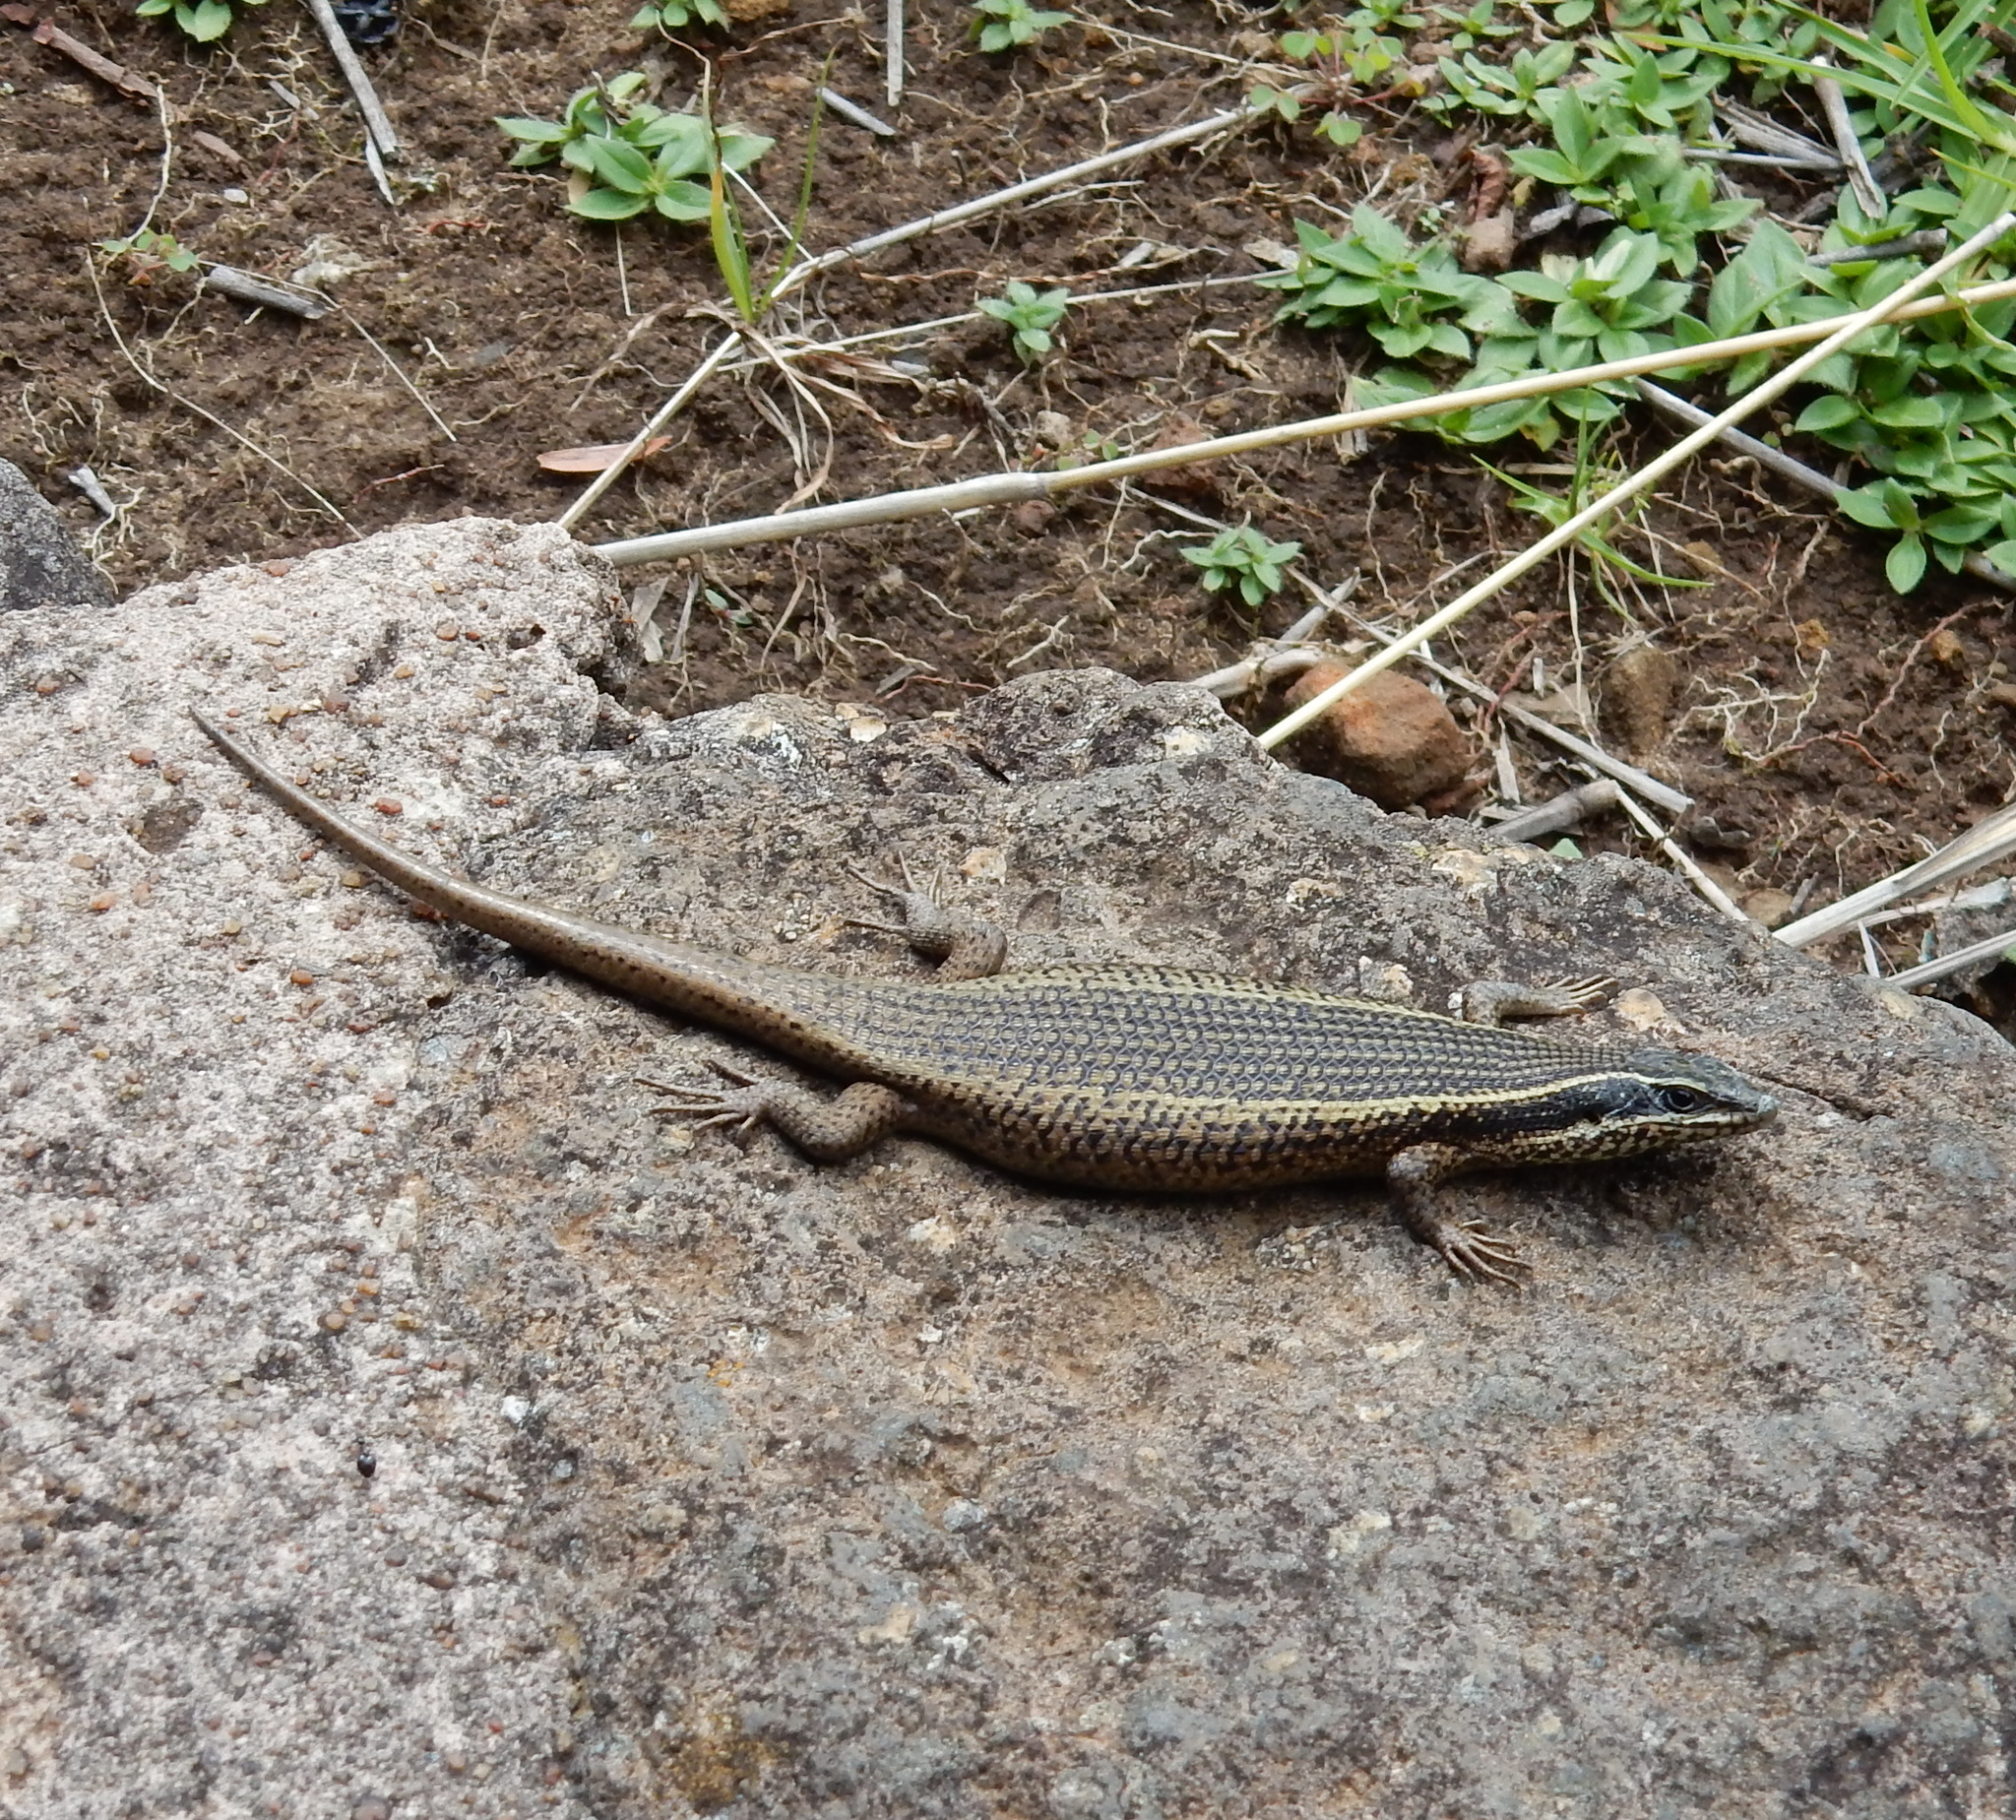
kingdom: Animalia
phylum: Chordata
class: Squamata
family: Scincidae
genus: Trachylepis
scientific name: Trachylepis punctatissima
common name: Montane speckled skink
